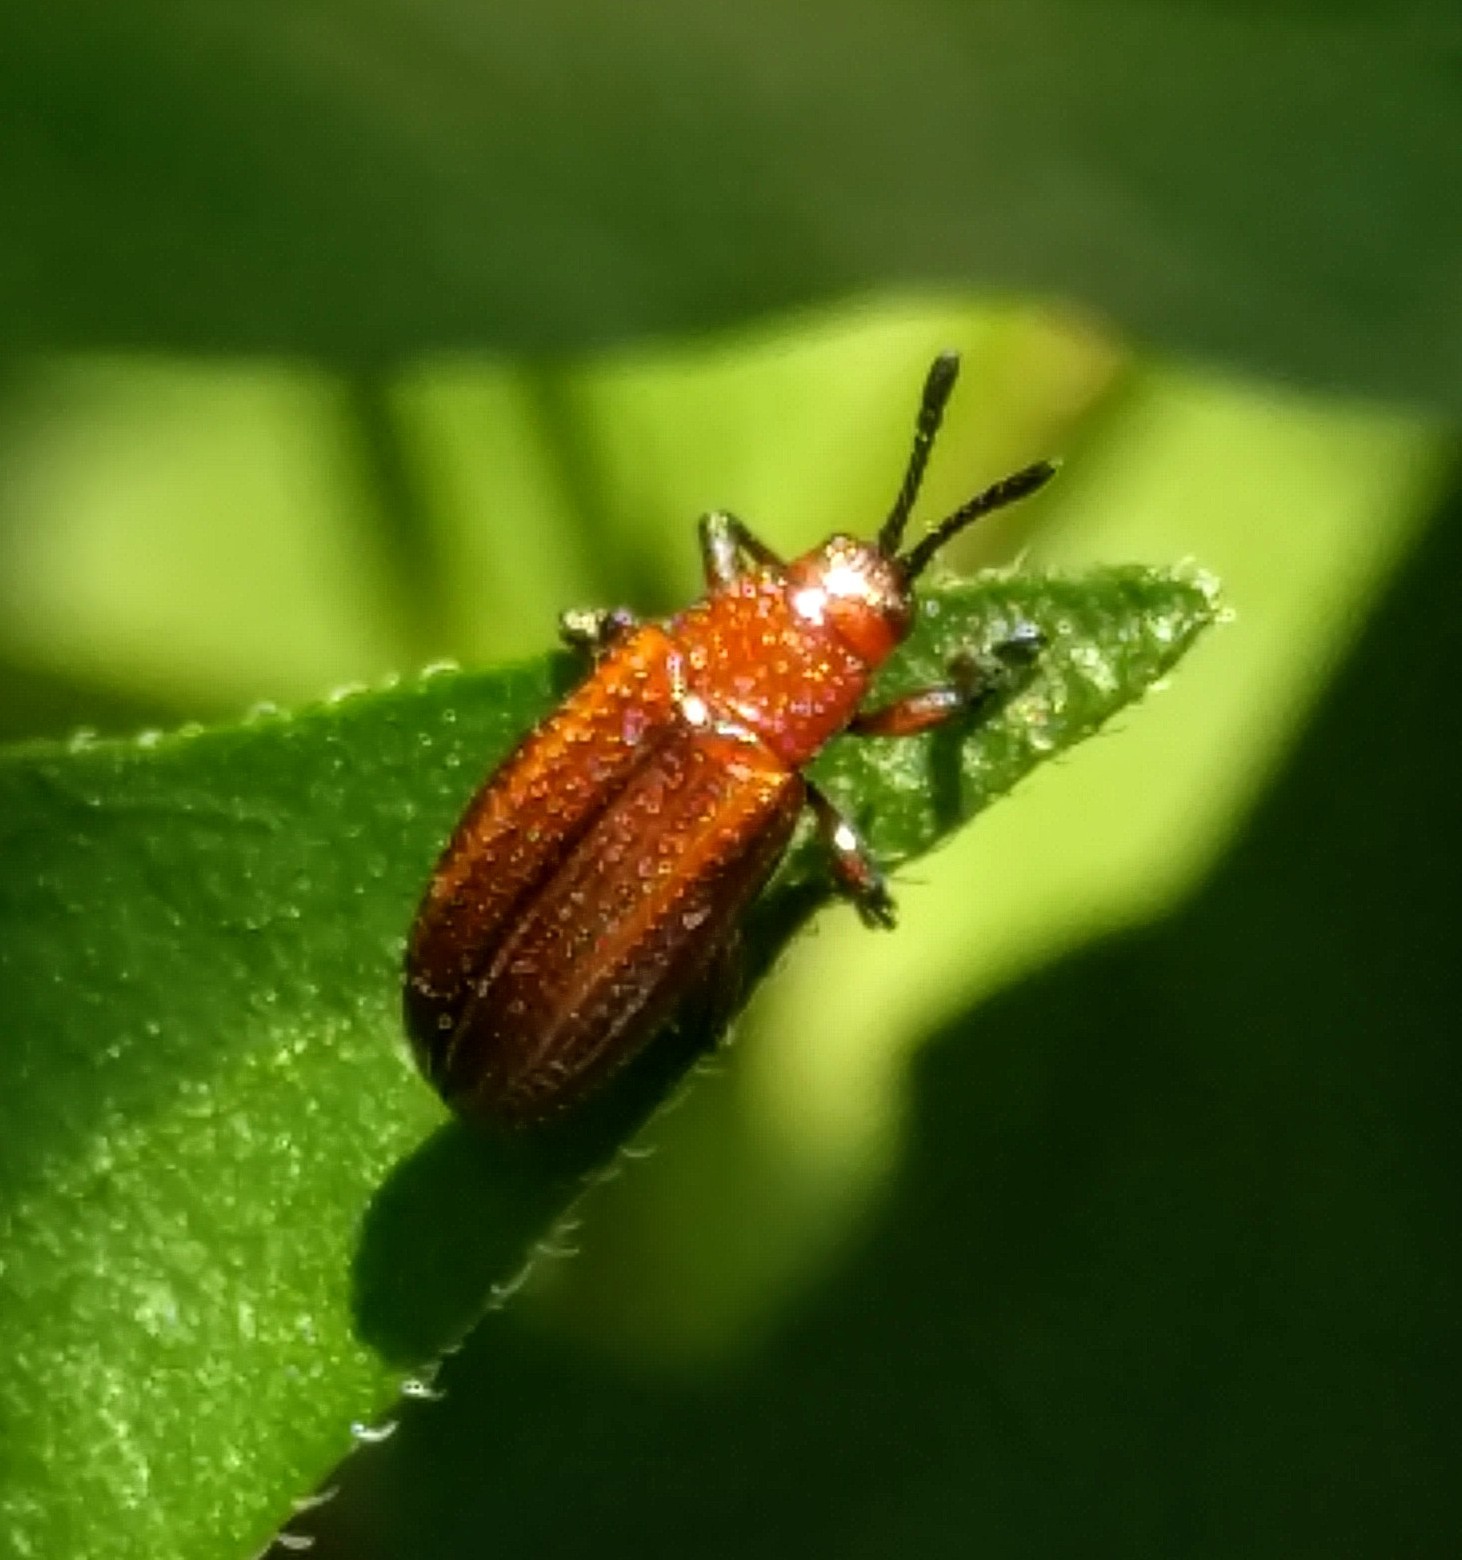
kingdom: Animalia
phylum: Arthropoda
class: Insecta
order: Coleoptera
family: Chrysomelidae
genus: Microrhopala
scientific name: Microrhopala vittata
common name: Goldenrod leaf miner beetle
